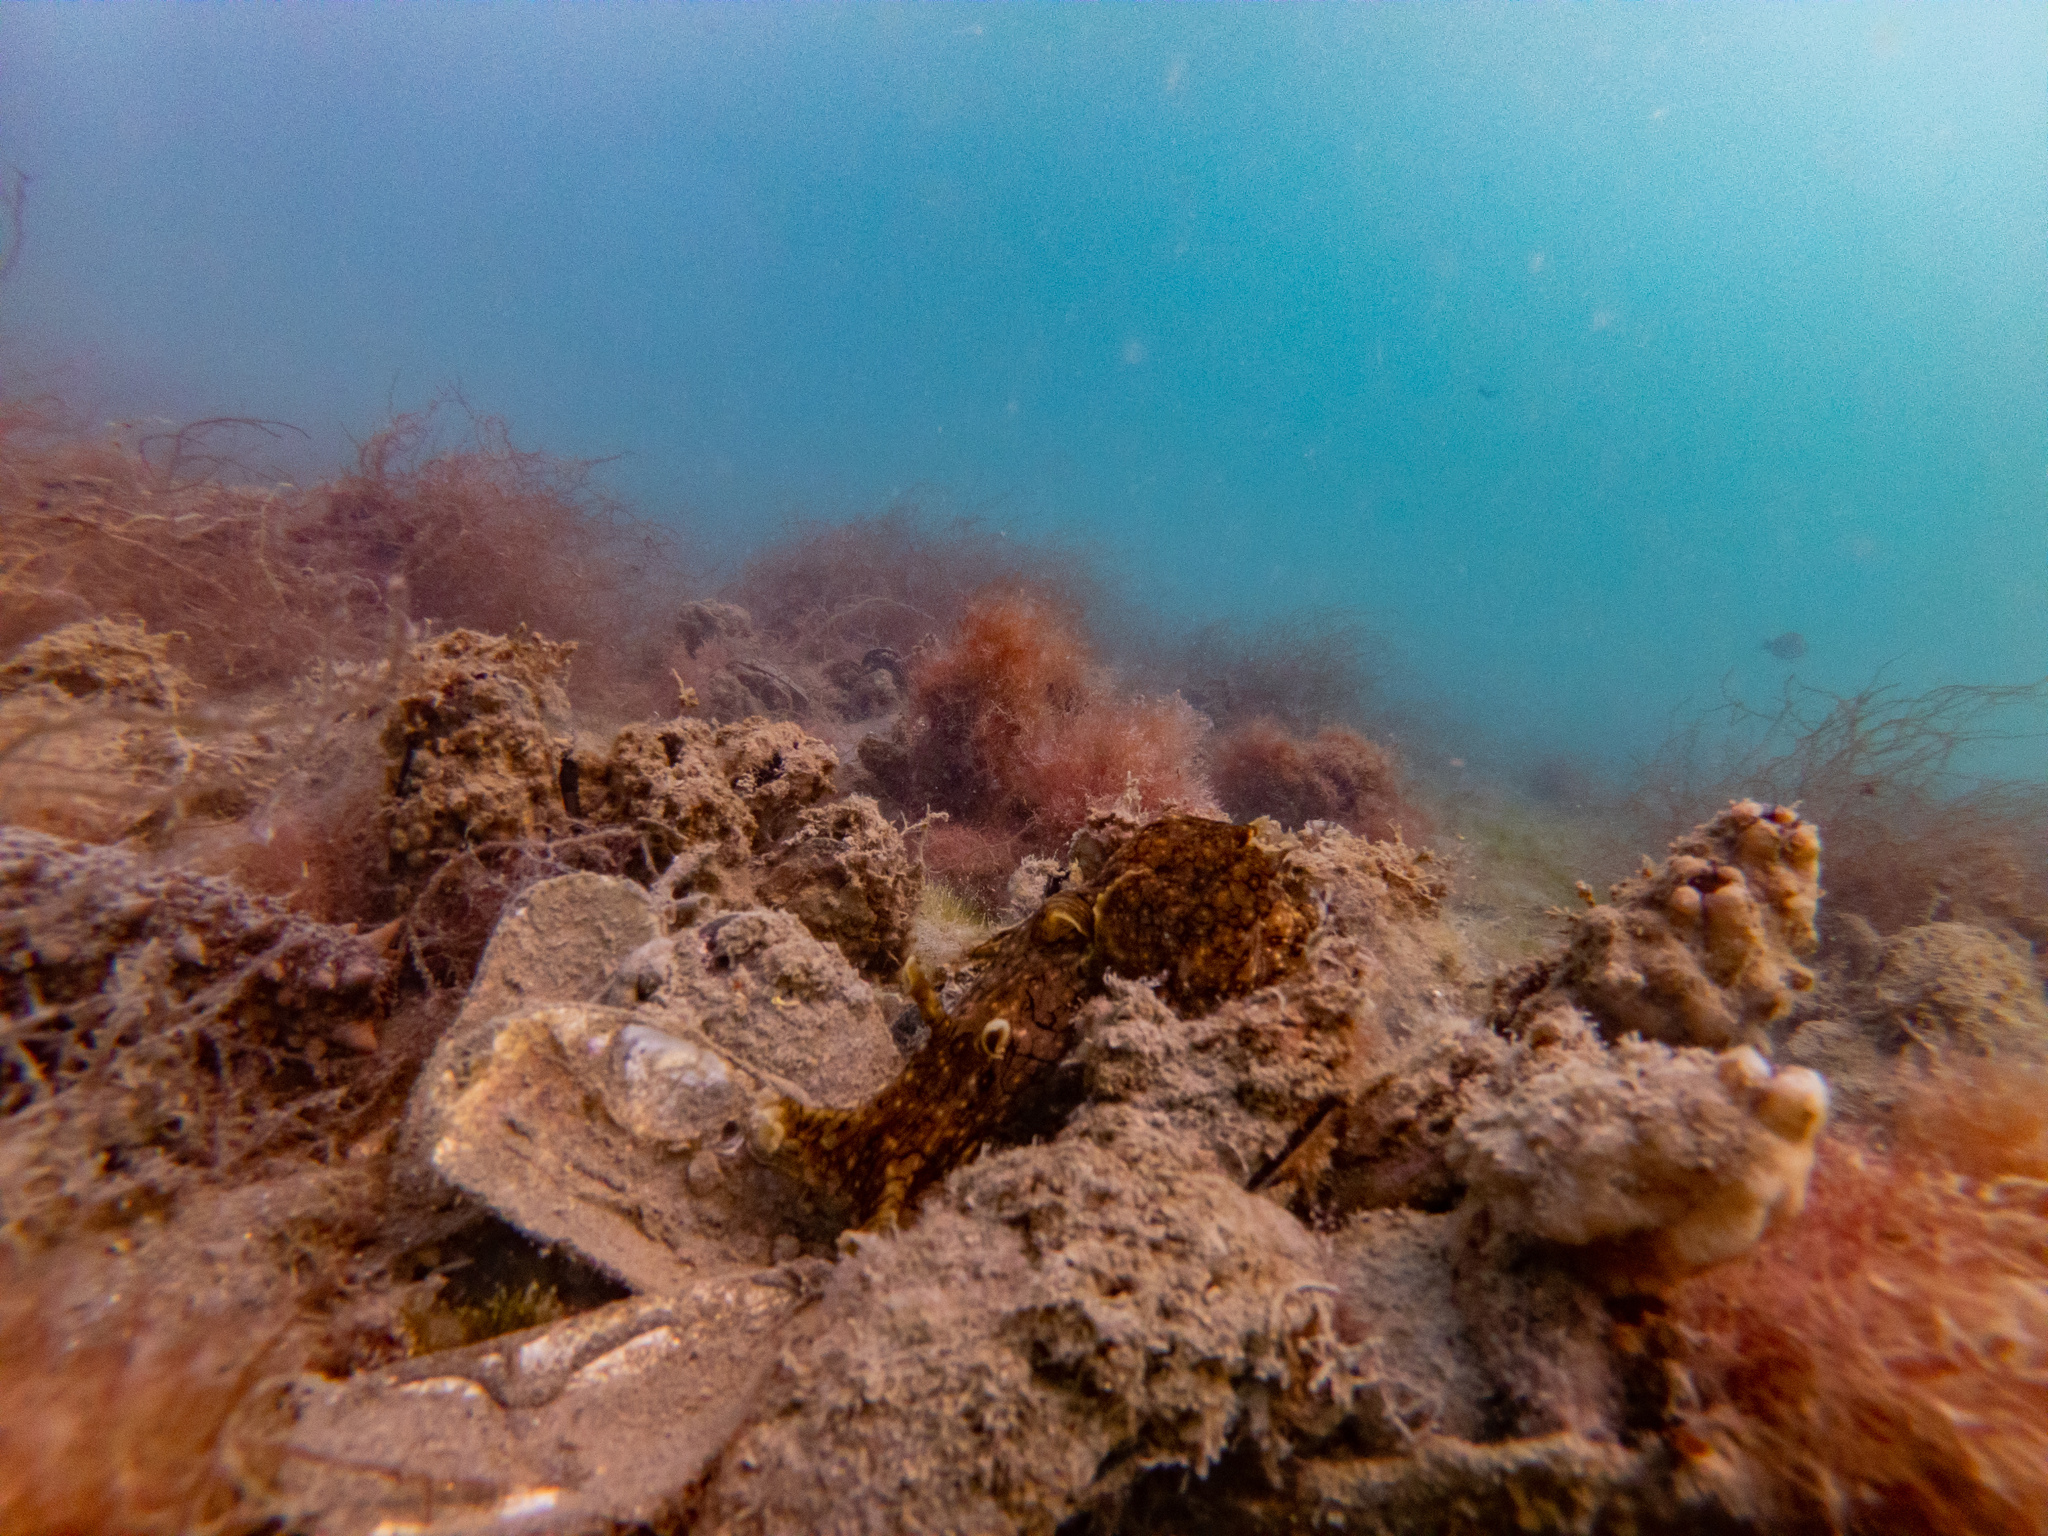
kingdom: Animalia
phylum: Mollusca
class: Gastropoda
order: Aplysiida
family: Aplysiidae
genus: Aplysia
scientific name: Aplysia argus
